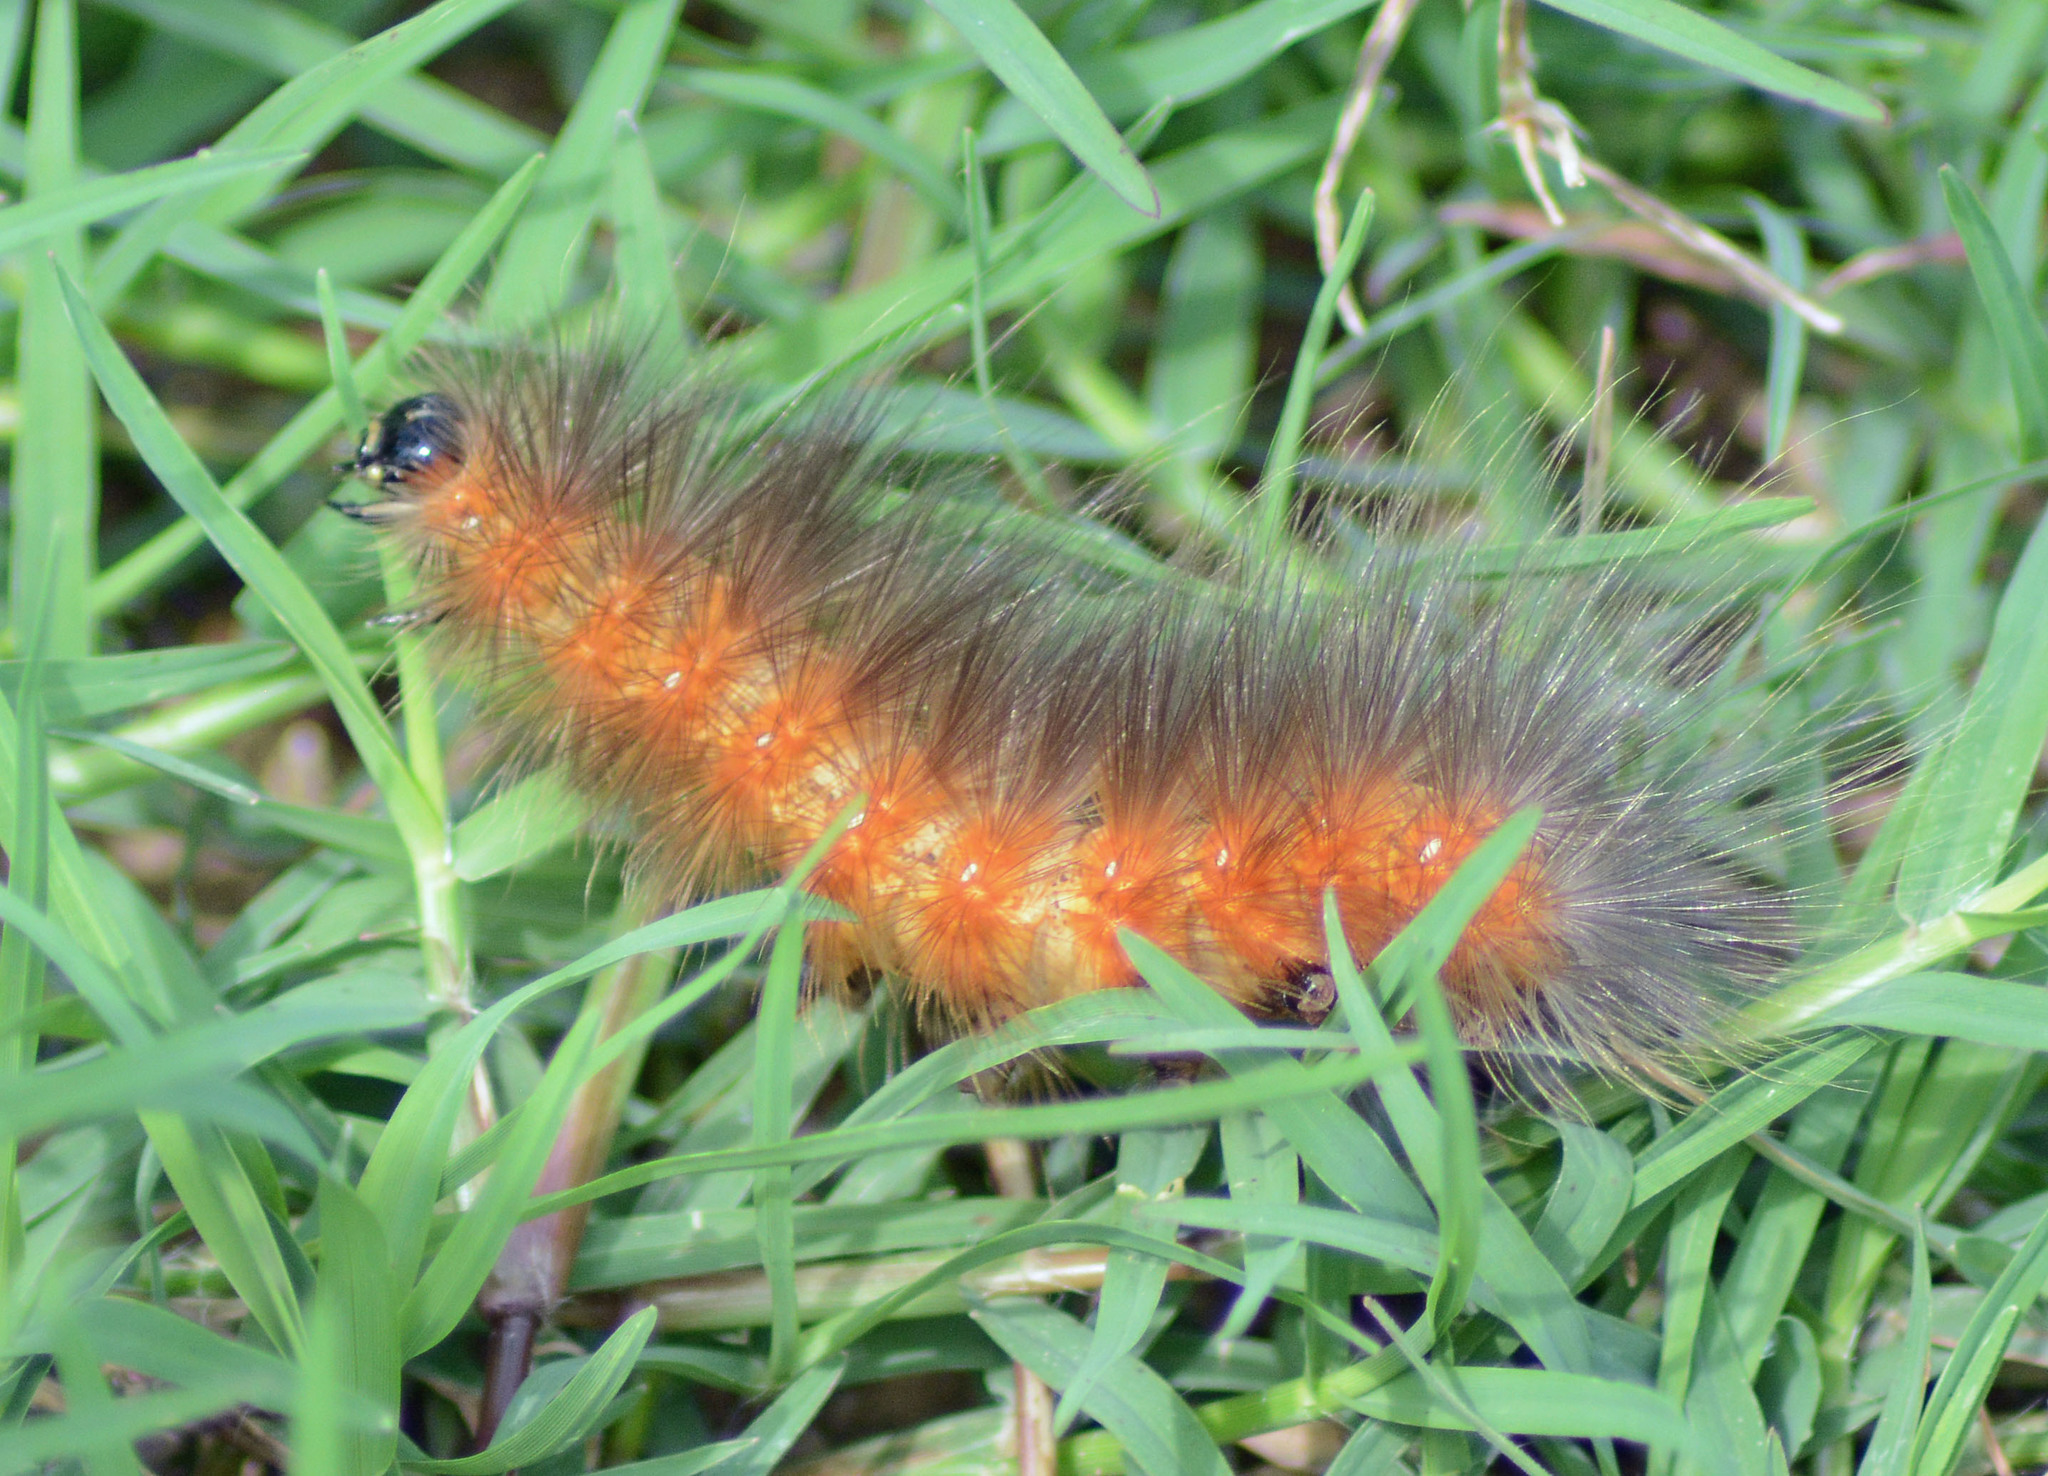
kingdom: Animalia
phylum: Arthropoda
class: Insecta
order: Lepidoptera
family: Erebidae
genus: Estigmene
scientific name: Estigmene acrea
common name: Salt marsh moth
